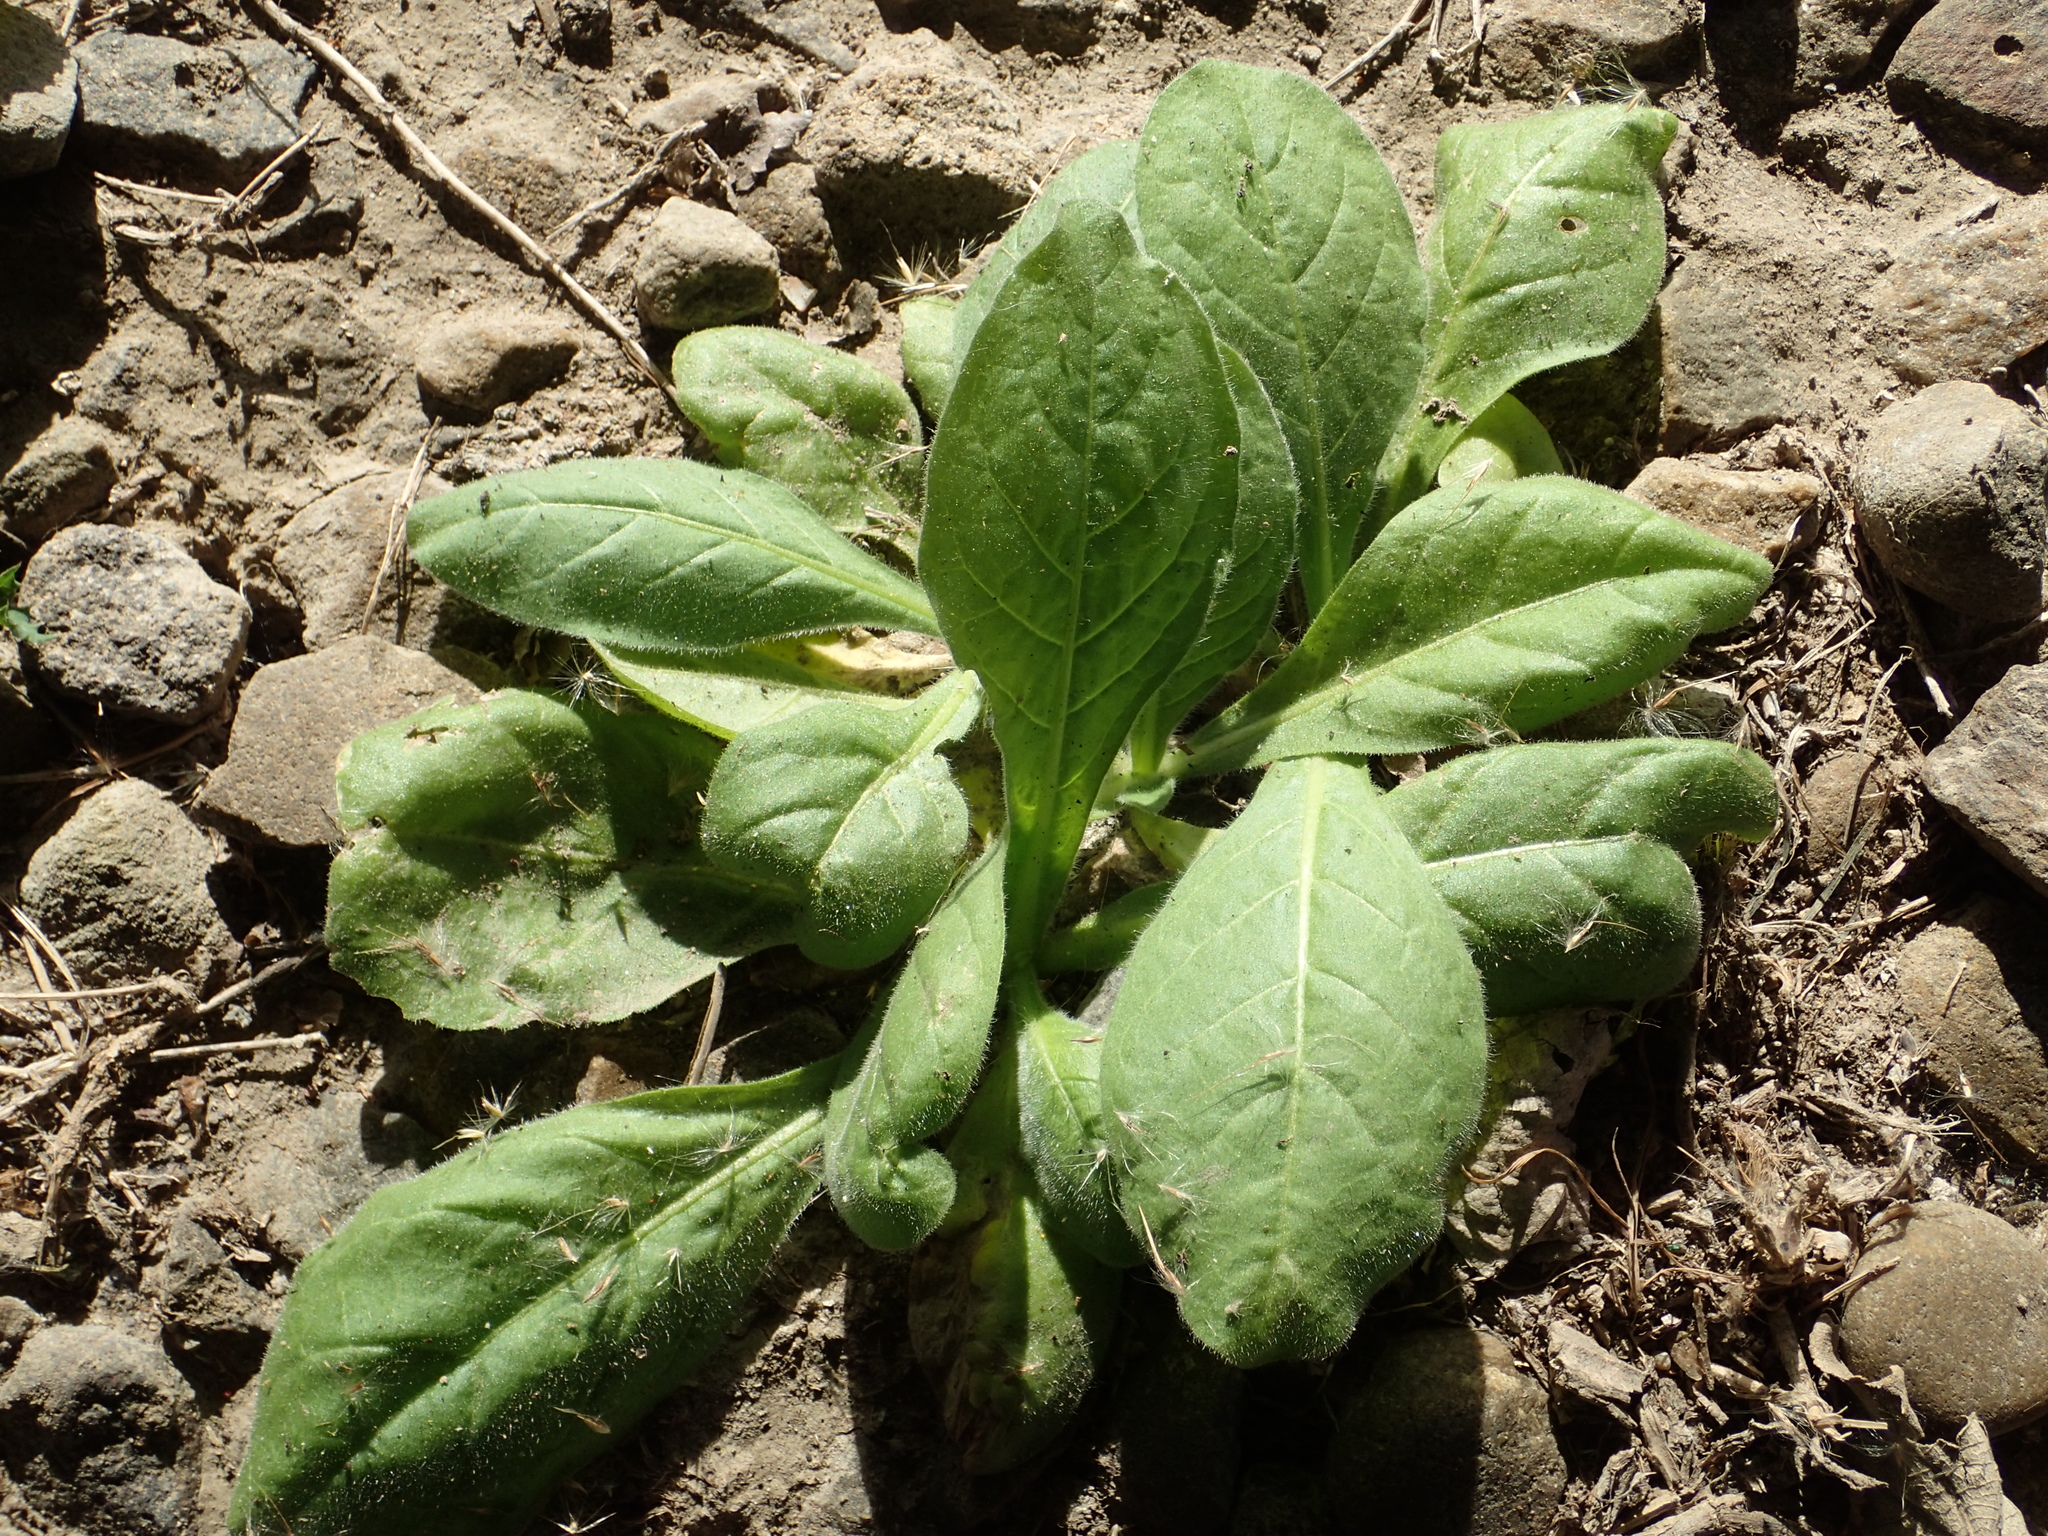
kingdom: Plantae
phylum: Tracheophyta
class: Magnoliopsida
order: Solanales
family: Solanaceae
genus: Nicotiana
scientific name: Nicotiana plumbaginifolia
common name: Tex-mex tobacco
